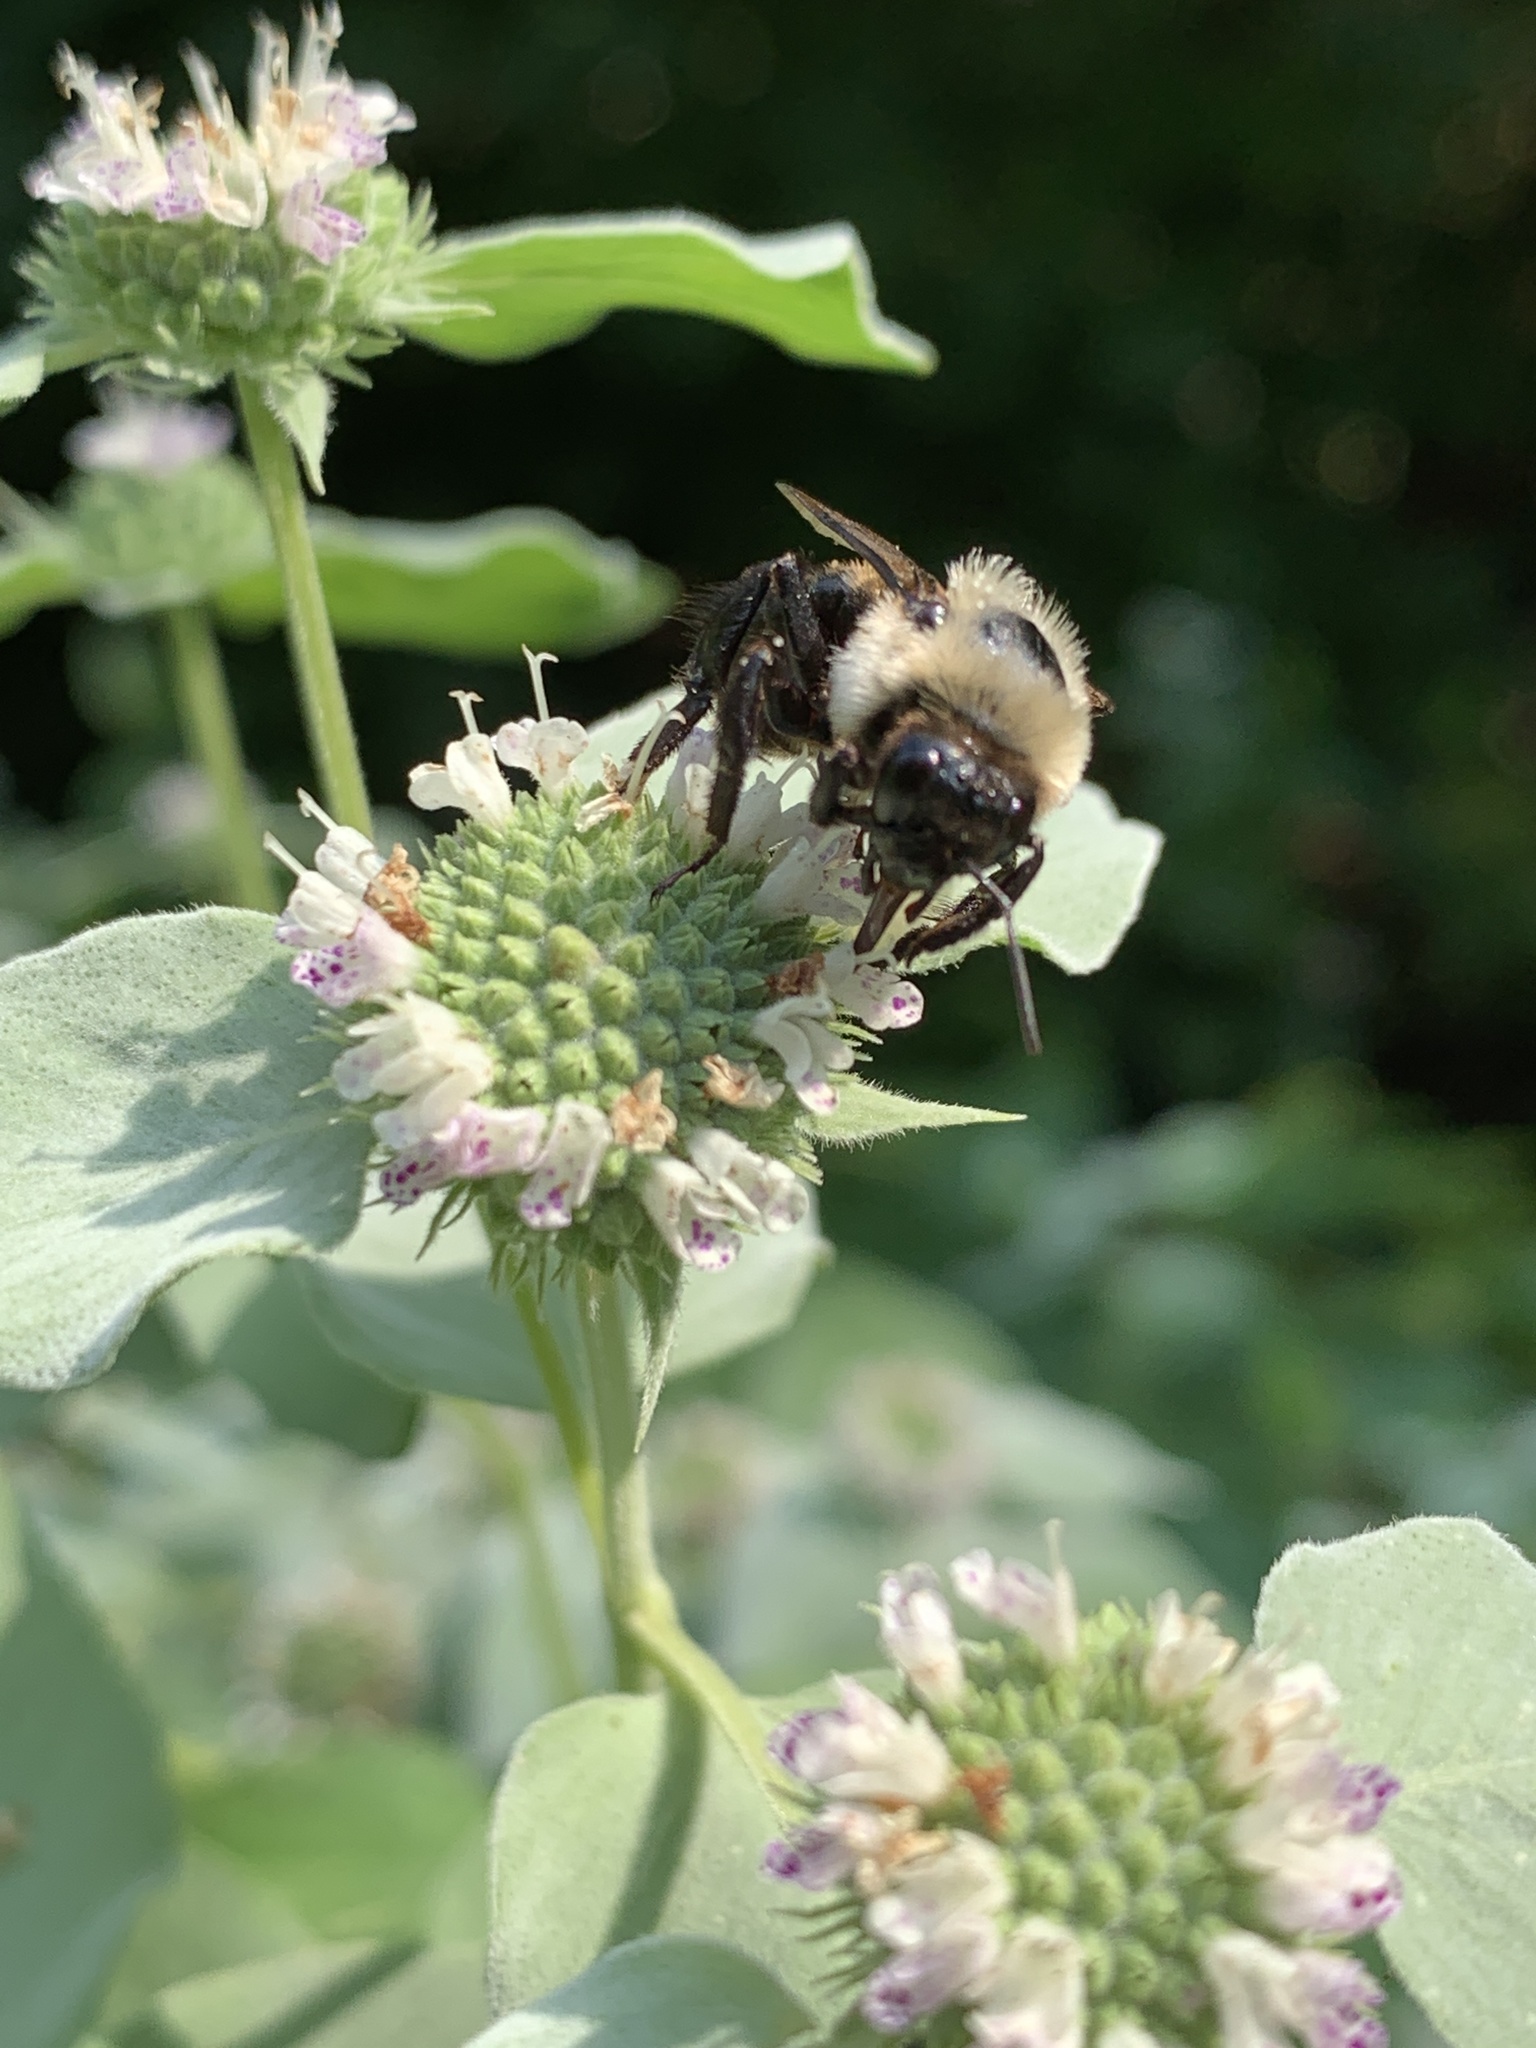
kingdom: Animalia
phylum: Arthropoda
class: Insecta
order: Hymenoptera
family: Apidae
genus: Bombus
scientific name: Bombus griseocollis
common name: Brown-belted bumble bee
